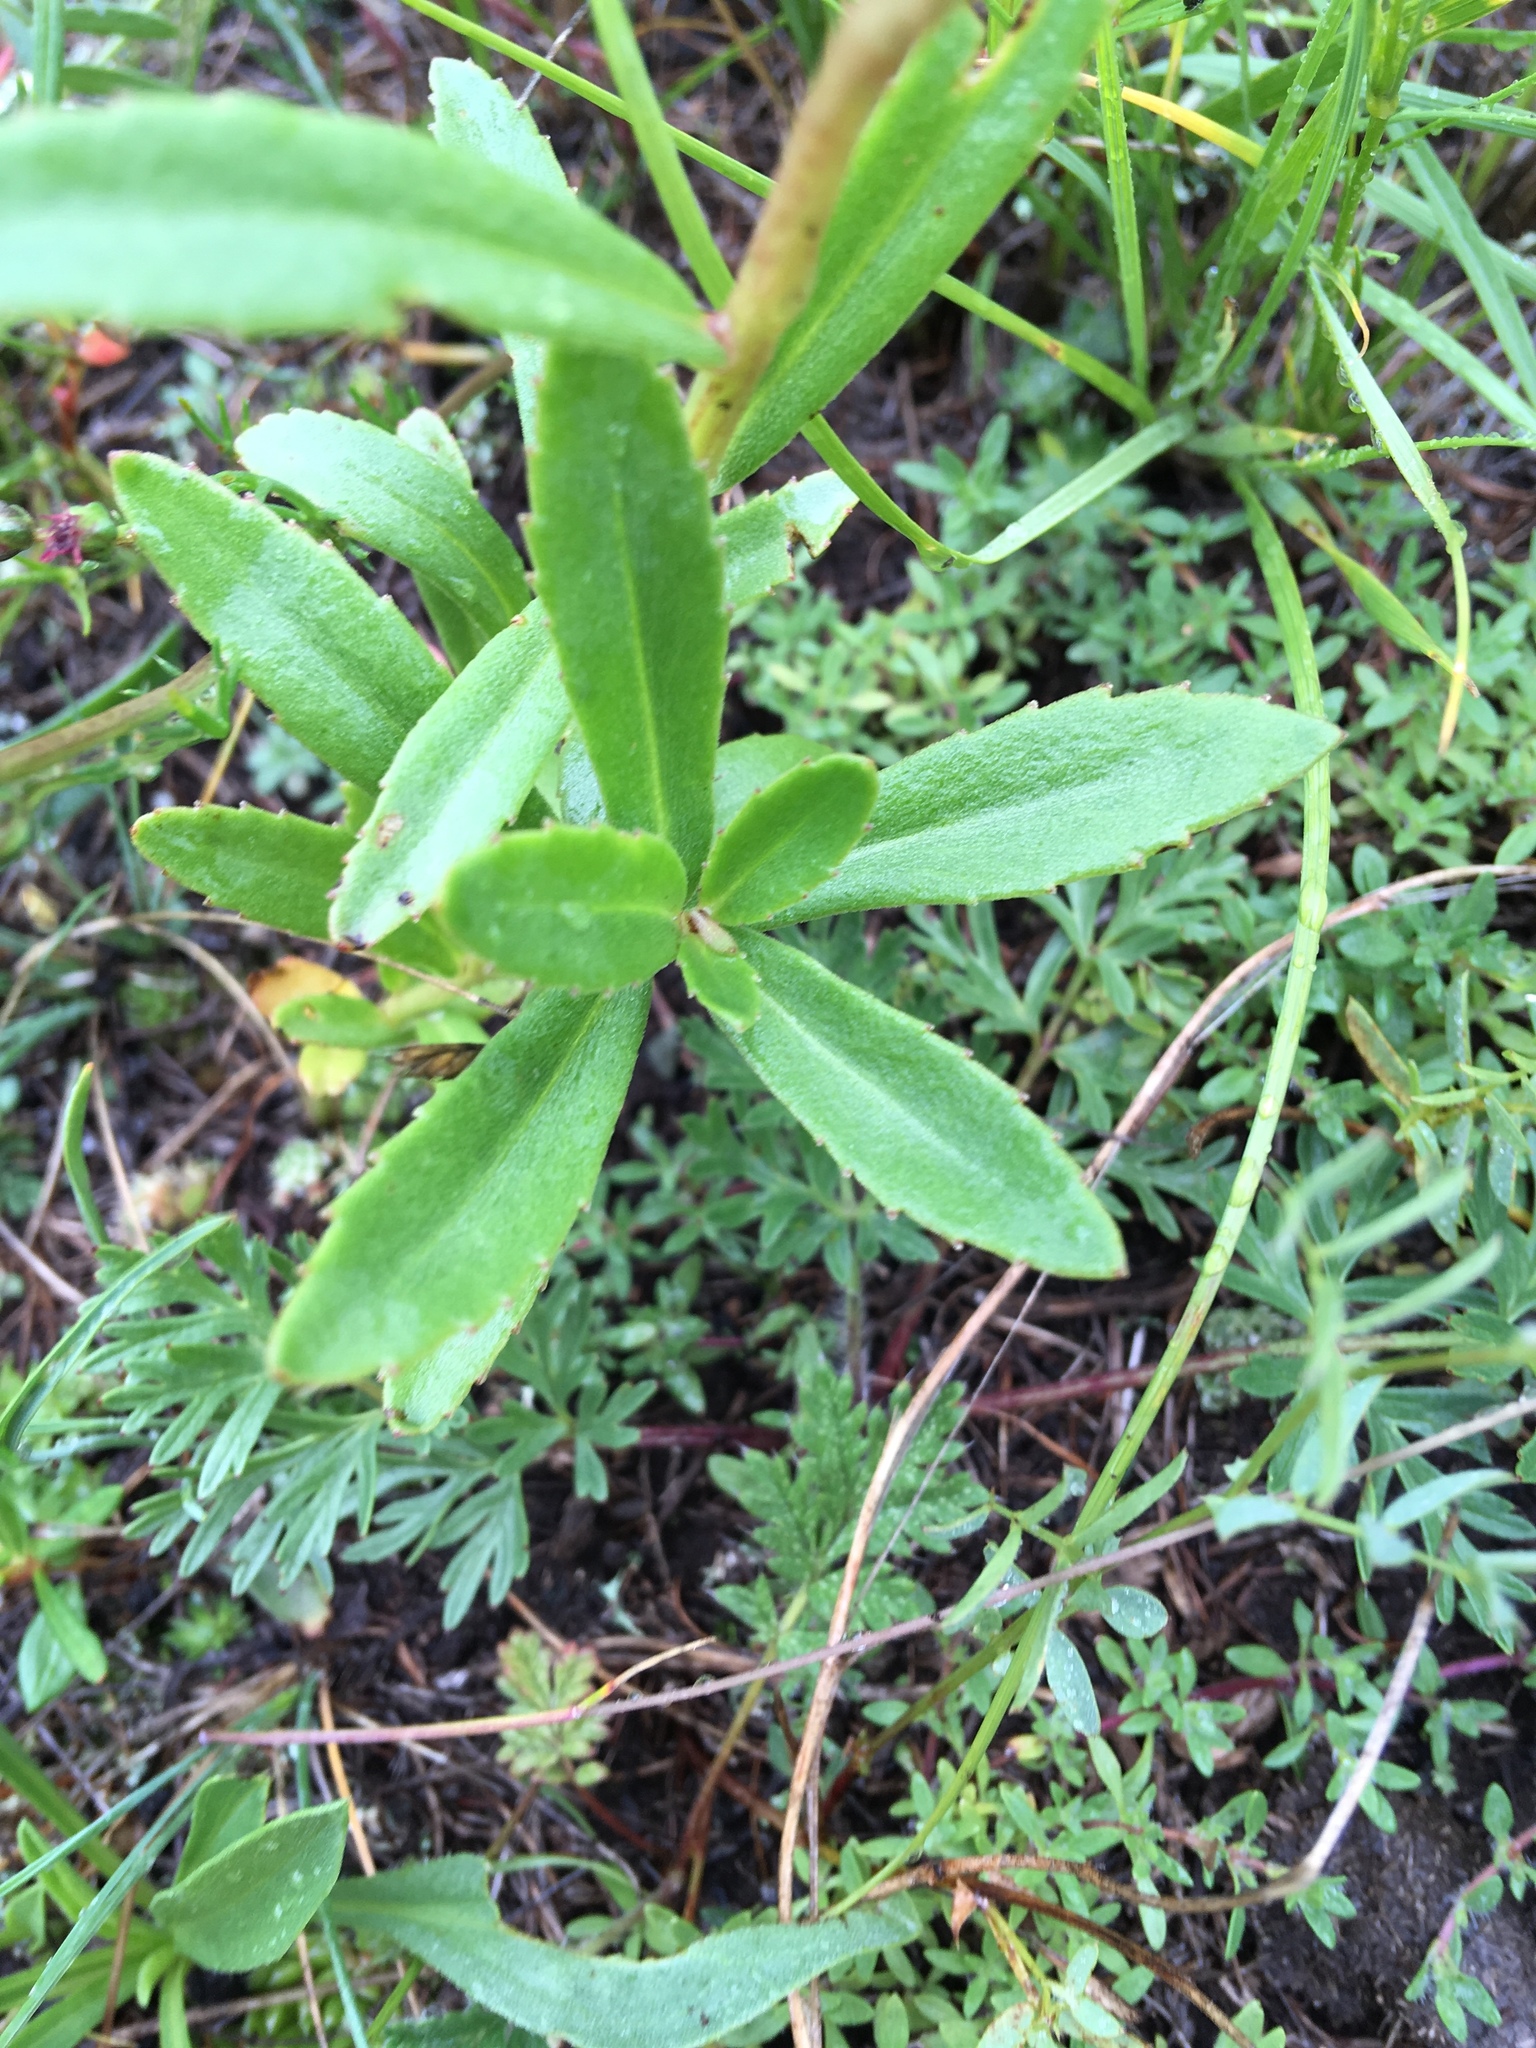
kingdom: Plantae
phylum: Tracheophyta
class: Magnoliopsida
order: Saxifragales
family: Crassulaceae
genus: Phedimus
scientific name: Phedimus aizoon
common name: Orpin aizoon
